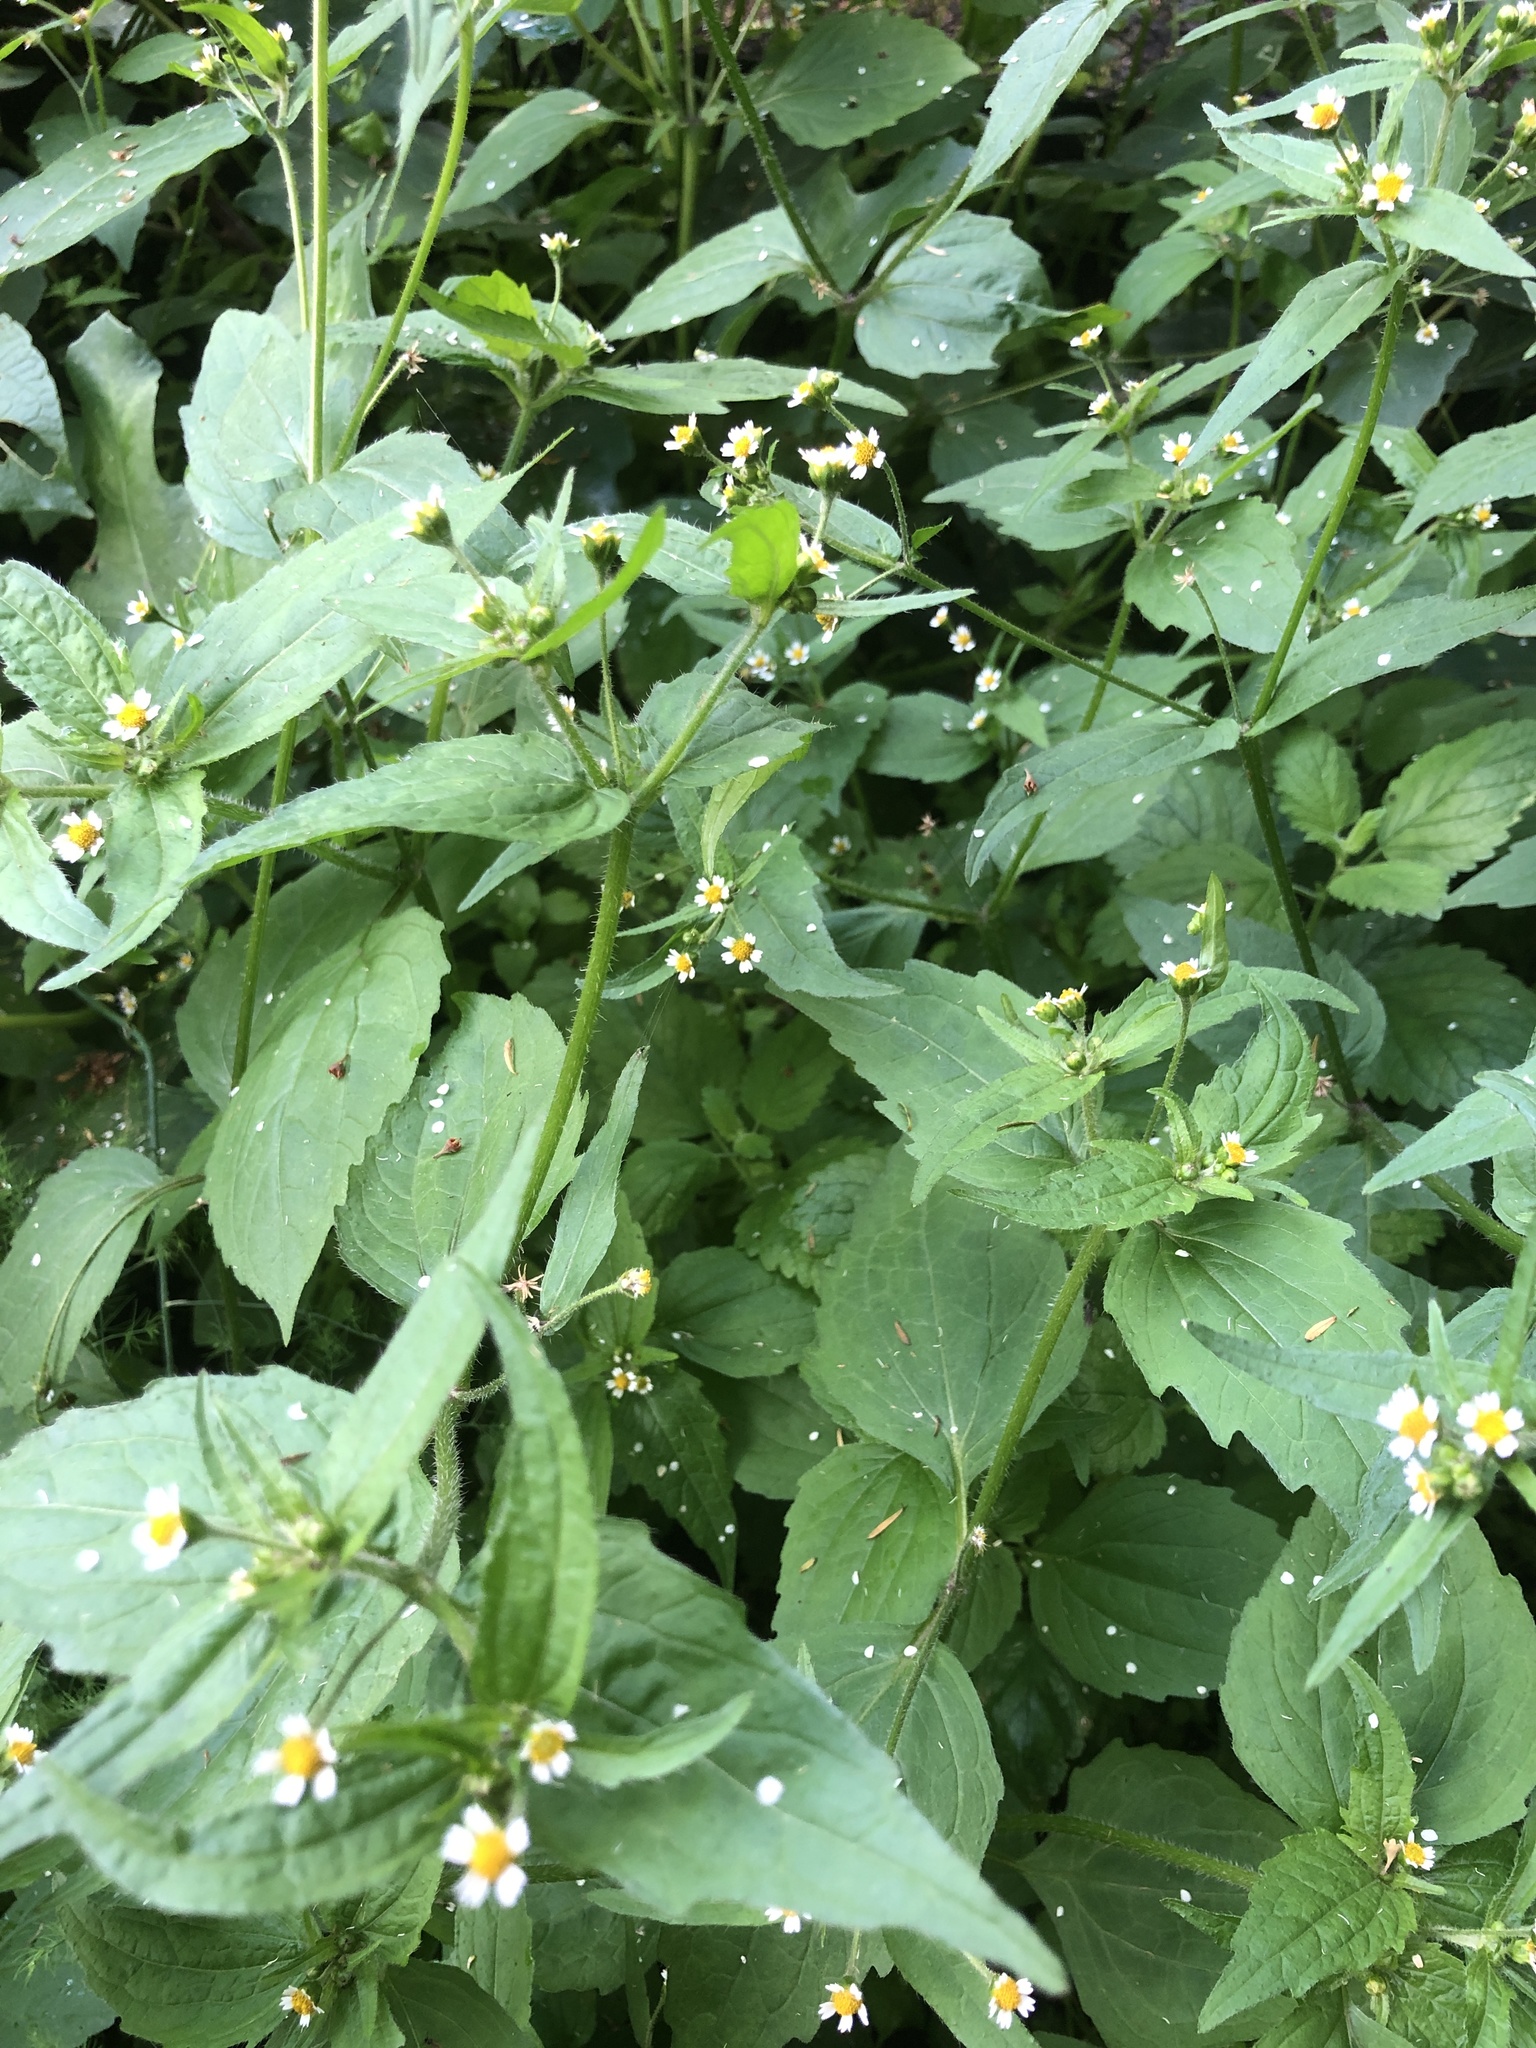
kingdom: Plantae
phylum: Tracheophyta
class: Magnoliopsida
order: Asterales
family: Asteraceae
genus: Galinsoga
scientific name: Galinsoga quadriradiata
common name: Shaggy soldier
